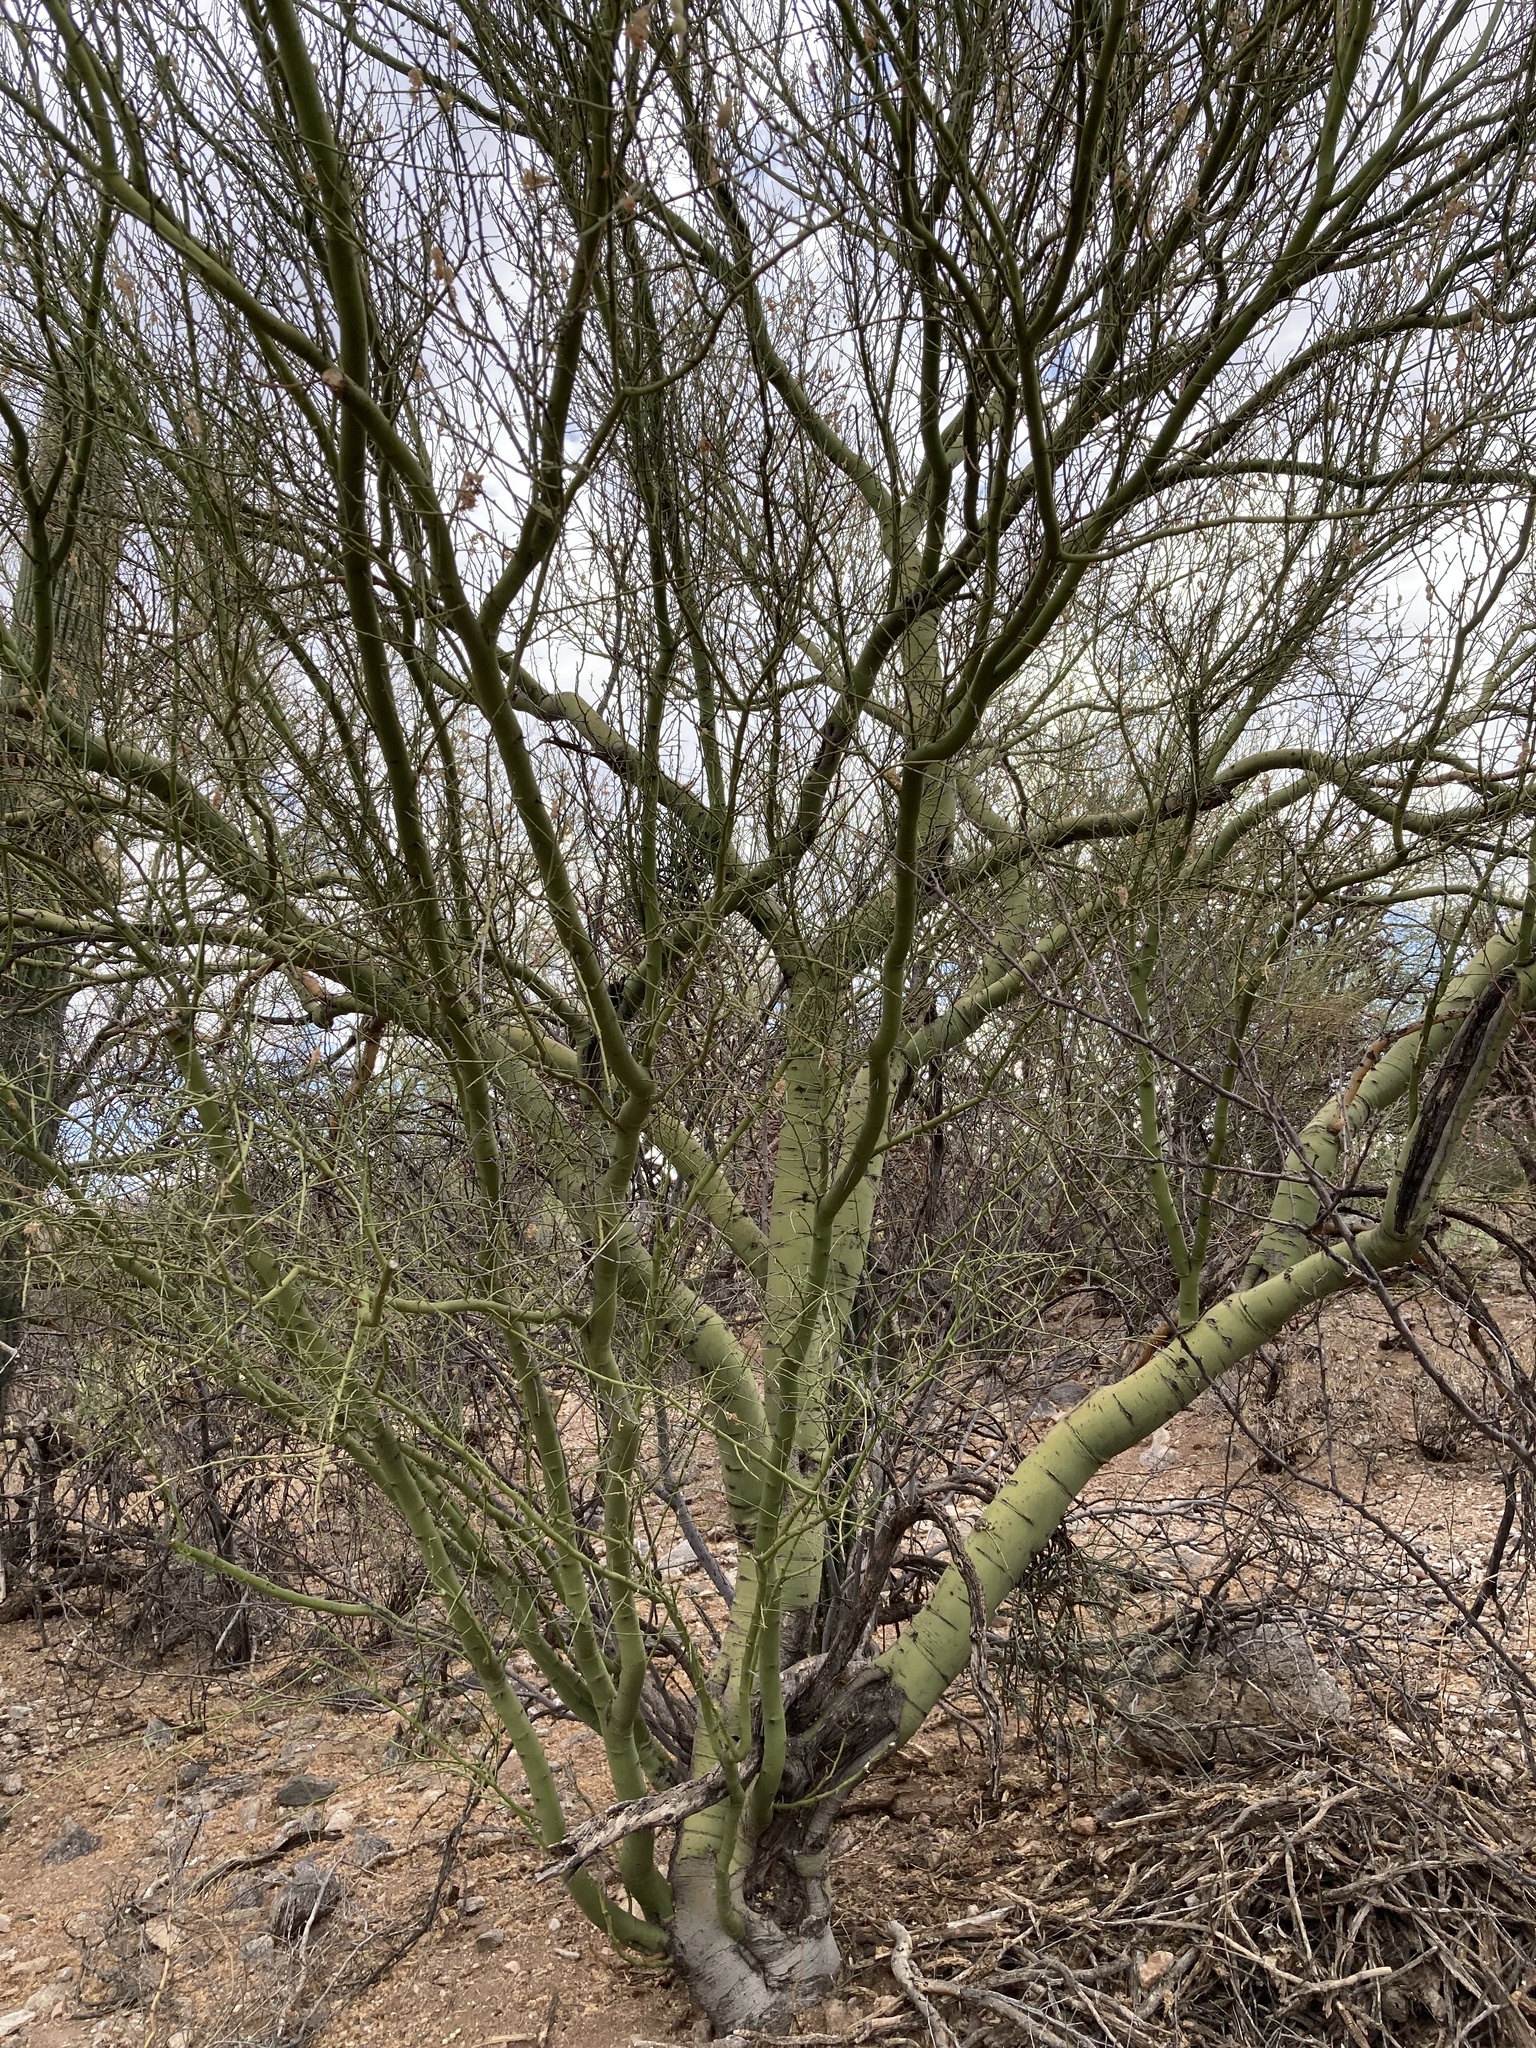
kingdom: Plantae
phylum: Tracheophyta
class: Magnoliopsida
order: Fabales
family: Fabaceae
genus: Parkinsonia
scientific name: Parkinsonia microphylla
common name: Yellow paloverde
